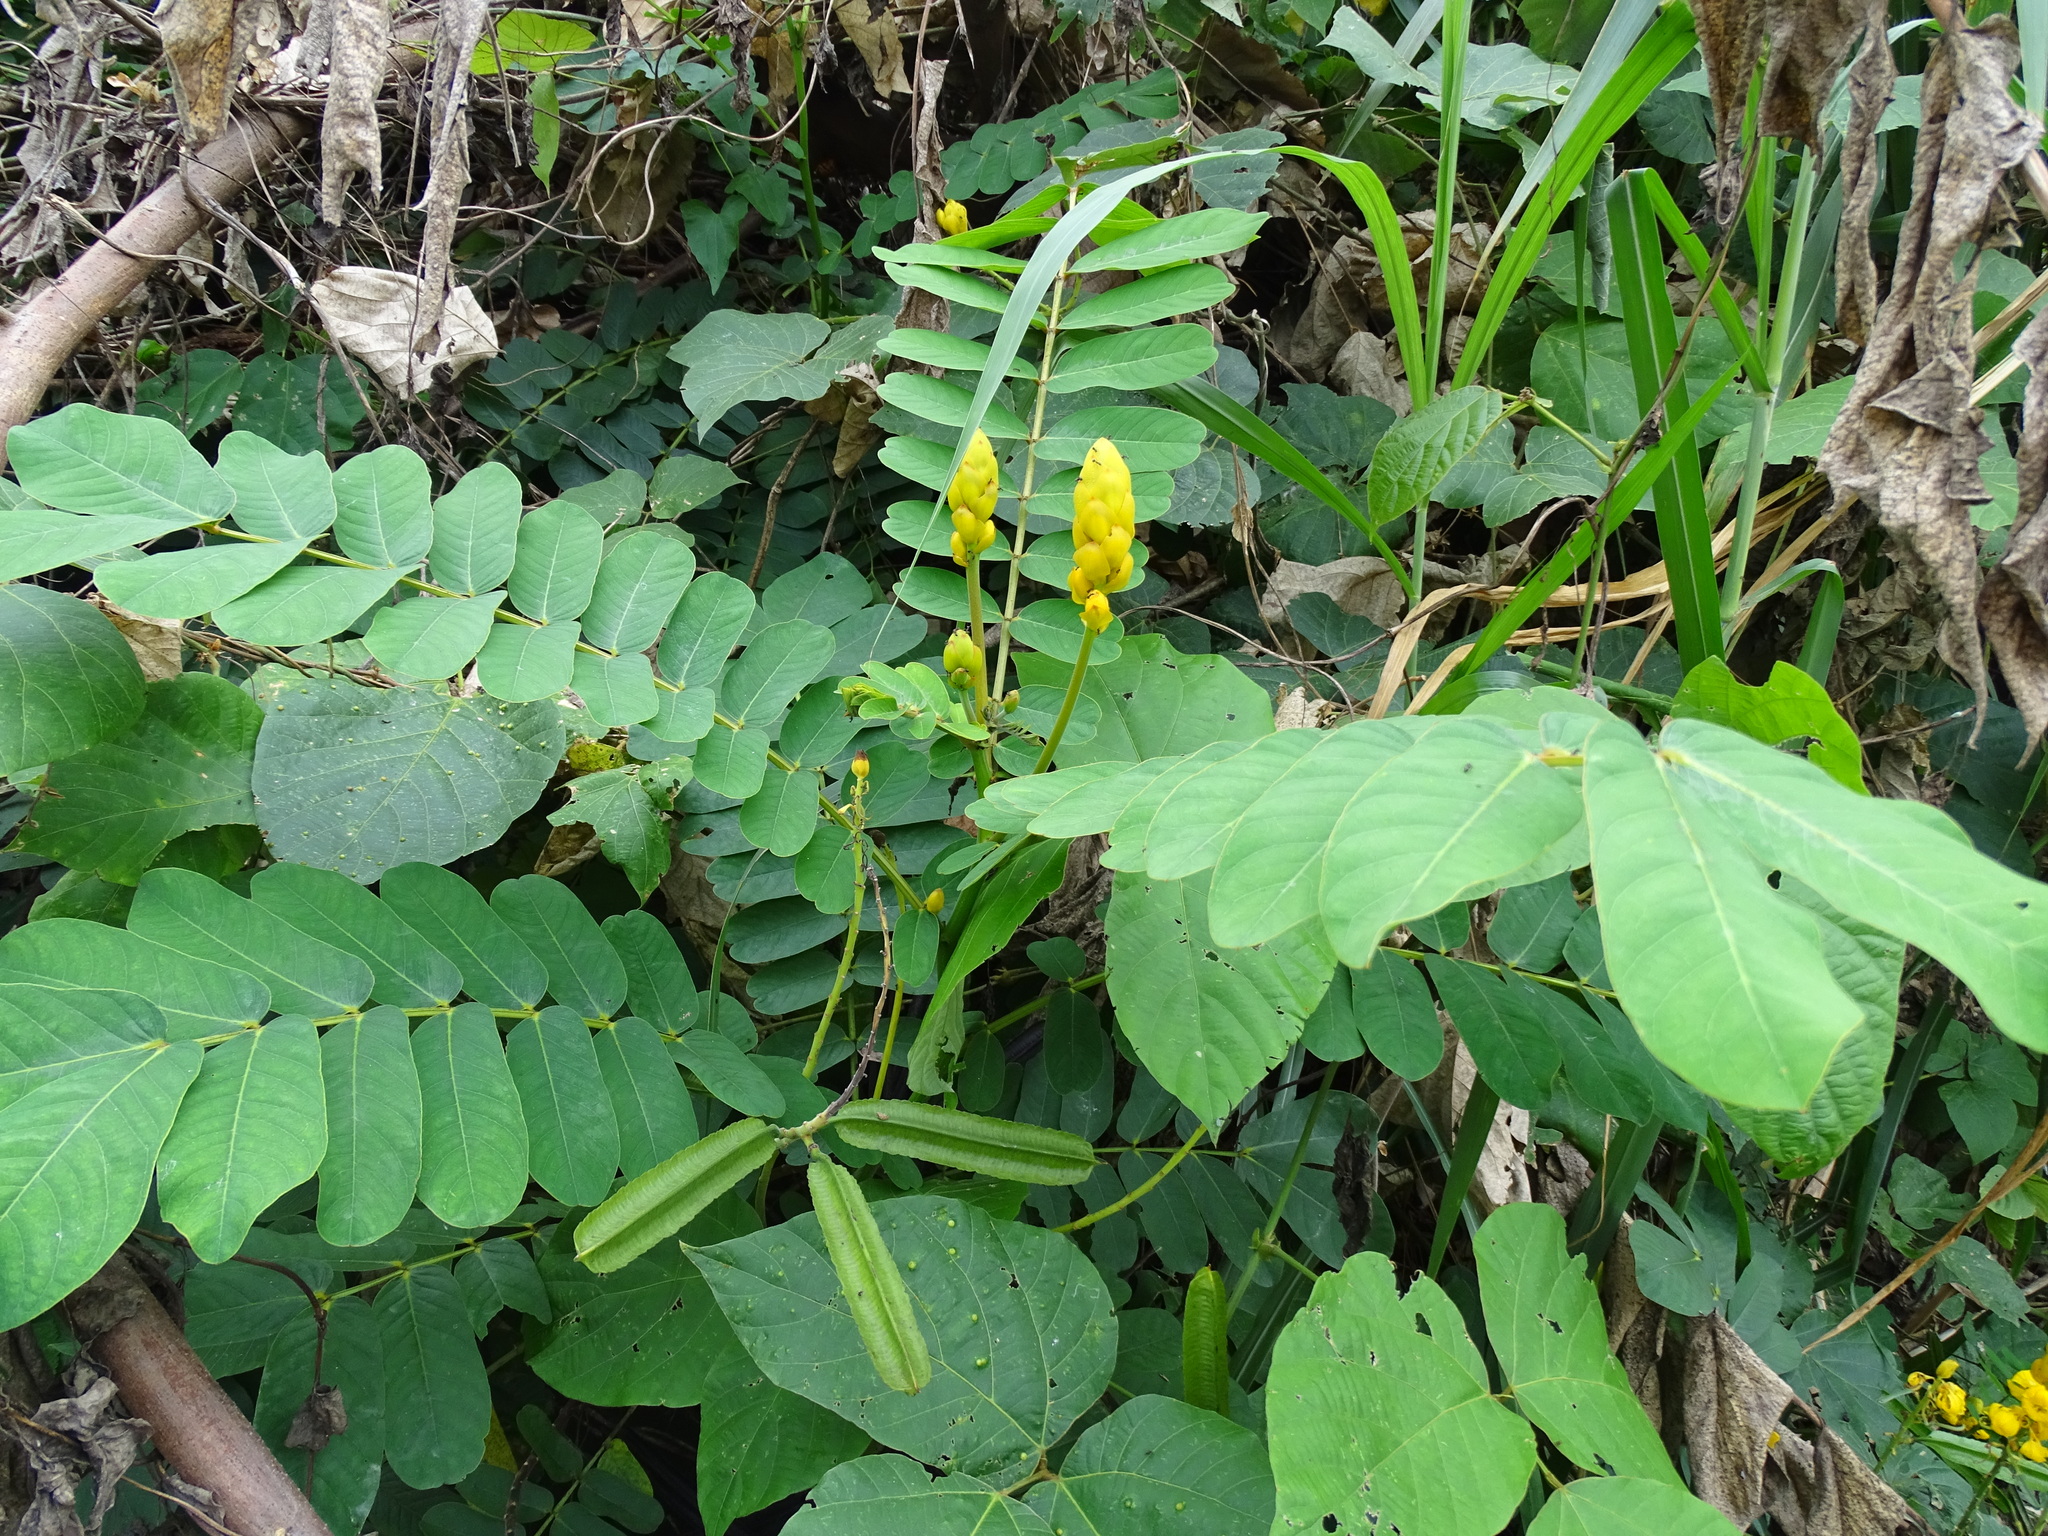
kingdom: Plantae
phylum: Tracheophyta
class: Magnoliopsida
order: Fabales
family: Fabaceae
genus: Senna
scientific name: Senna alata
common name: Emperor's candlesticks
